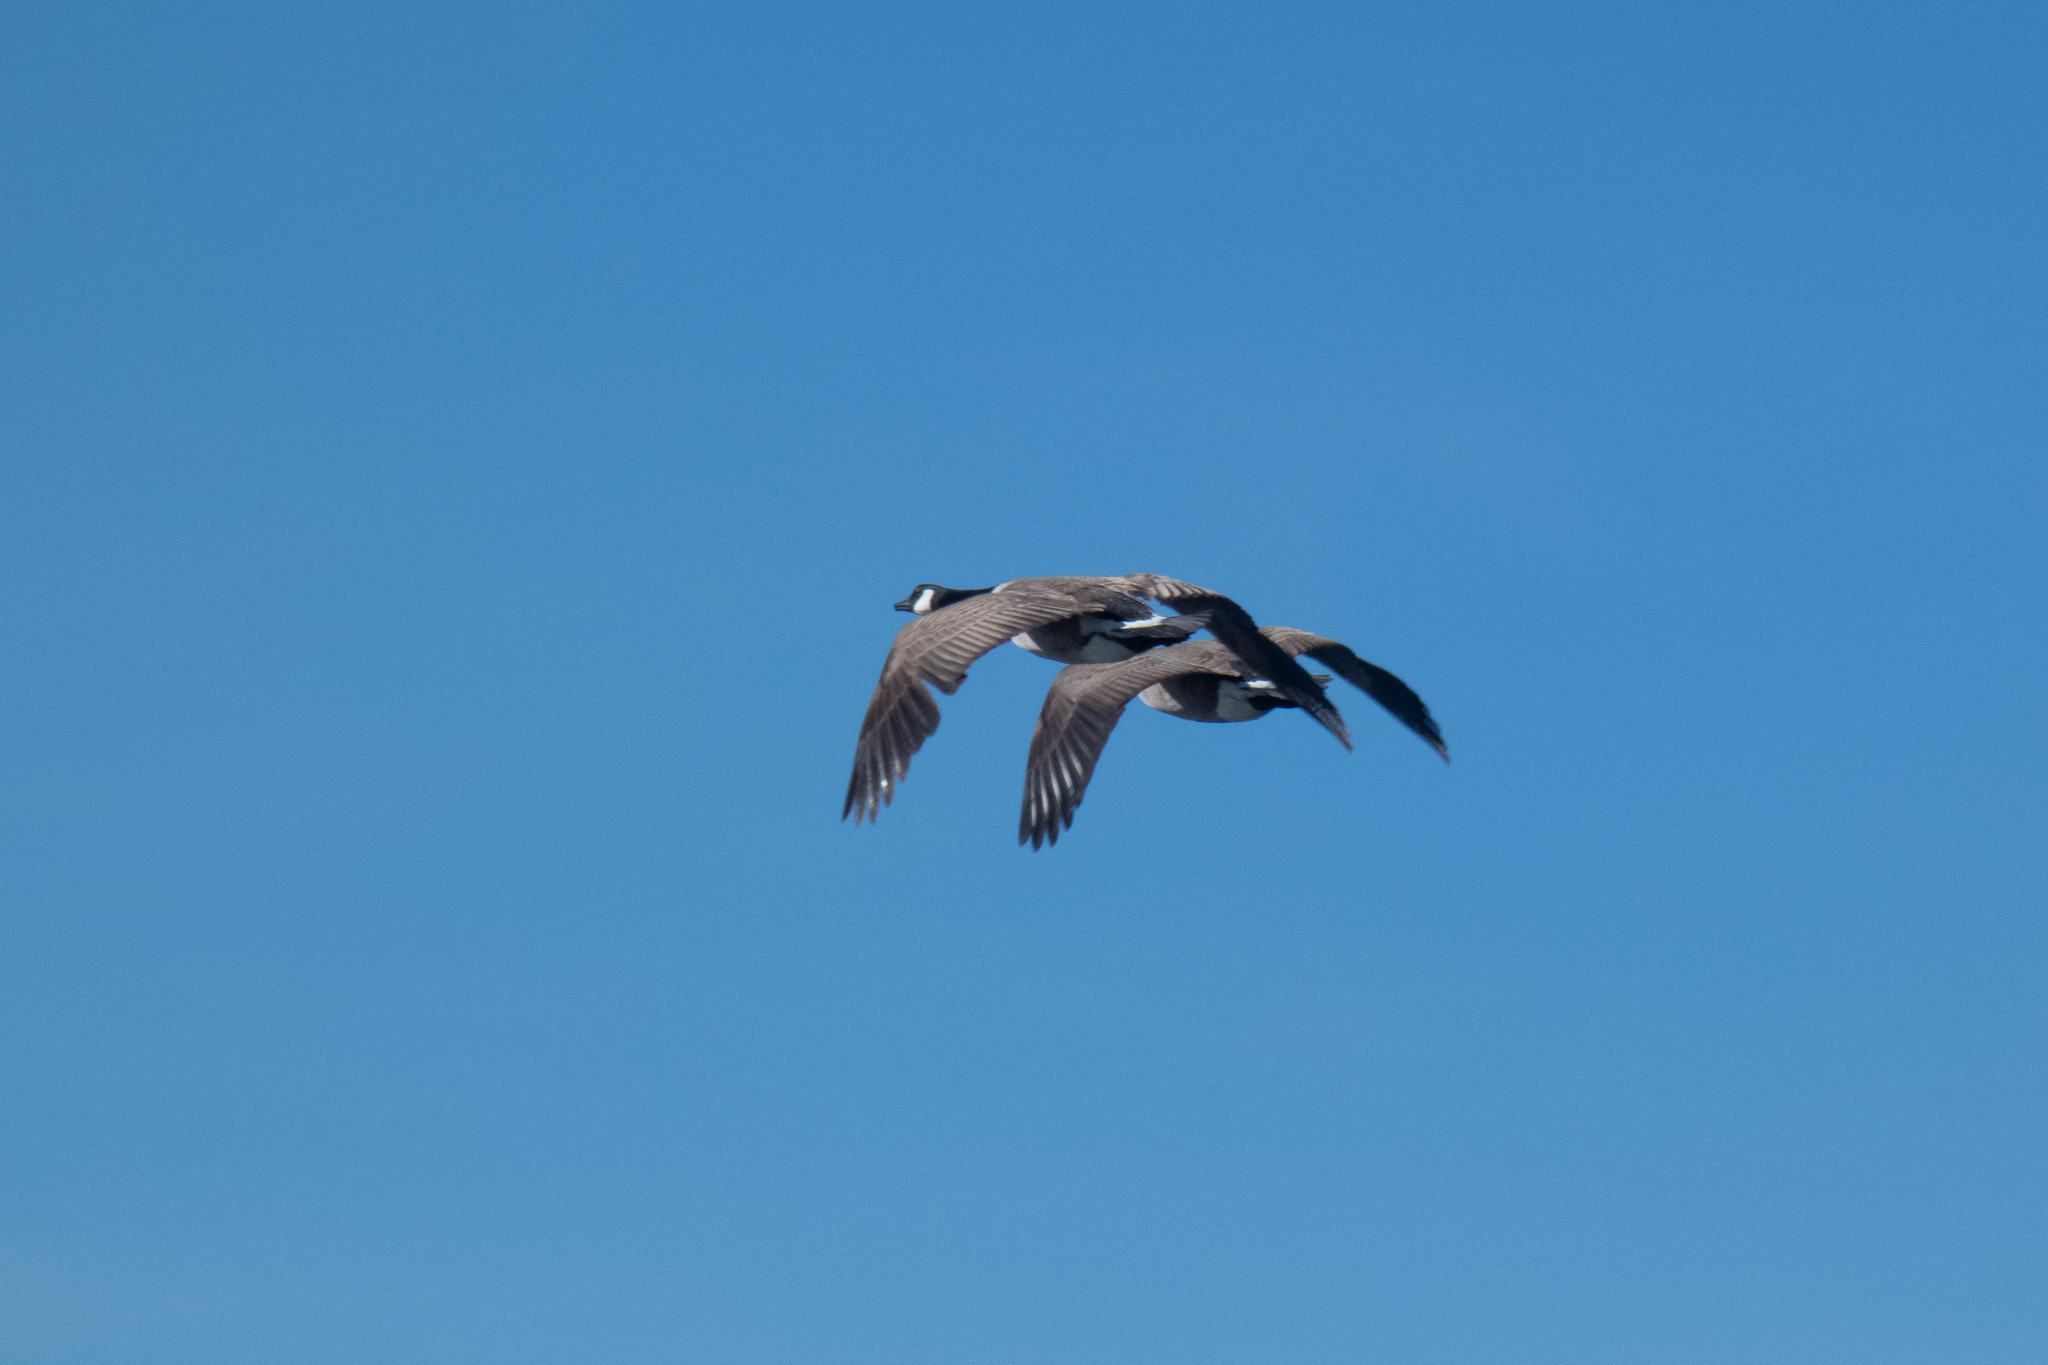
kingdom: Animalia
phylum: Chordata
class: Aves
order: Anseriformes
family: Anatidae
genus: Branta
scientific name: Branta canadensis
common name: Canada goose
